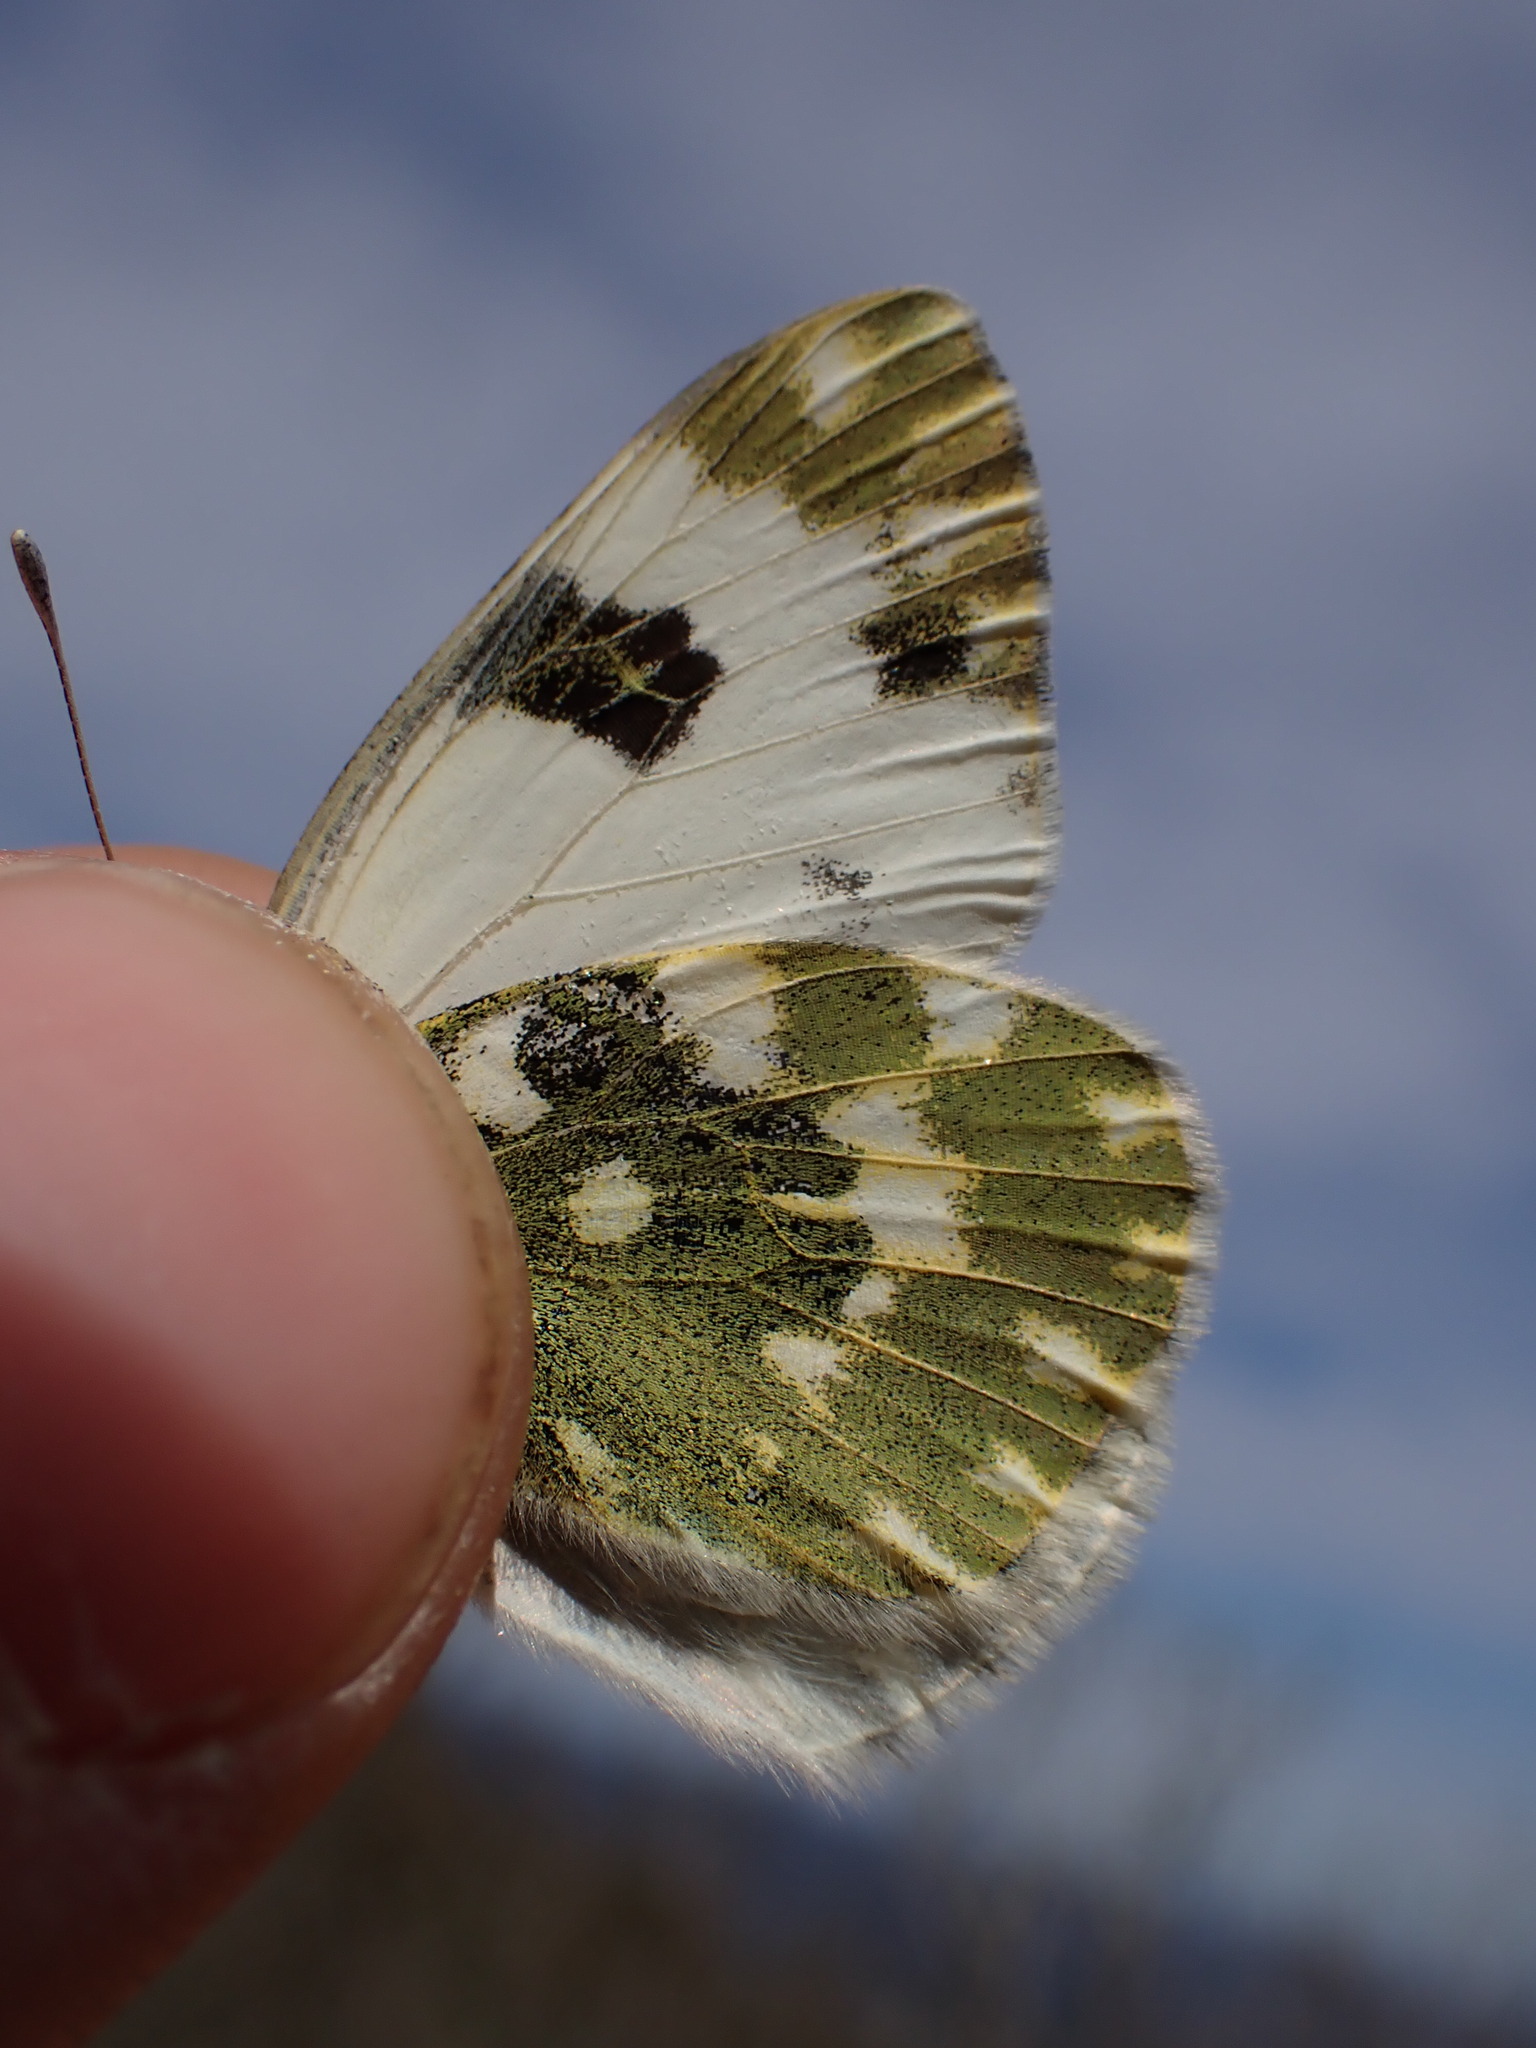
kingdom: Animalia
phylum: Arthropoda
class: Insecta
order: Lepidoptera
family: Pieridae
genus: Pontia
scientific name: Pontia daplidice
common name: Bath white
